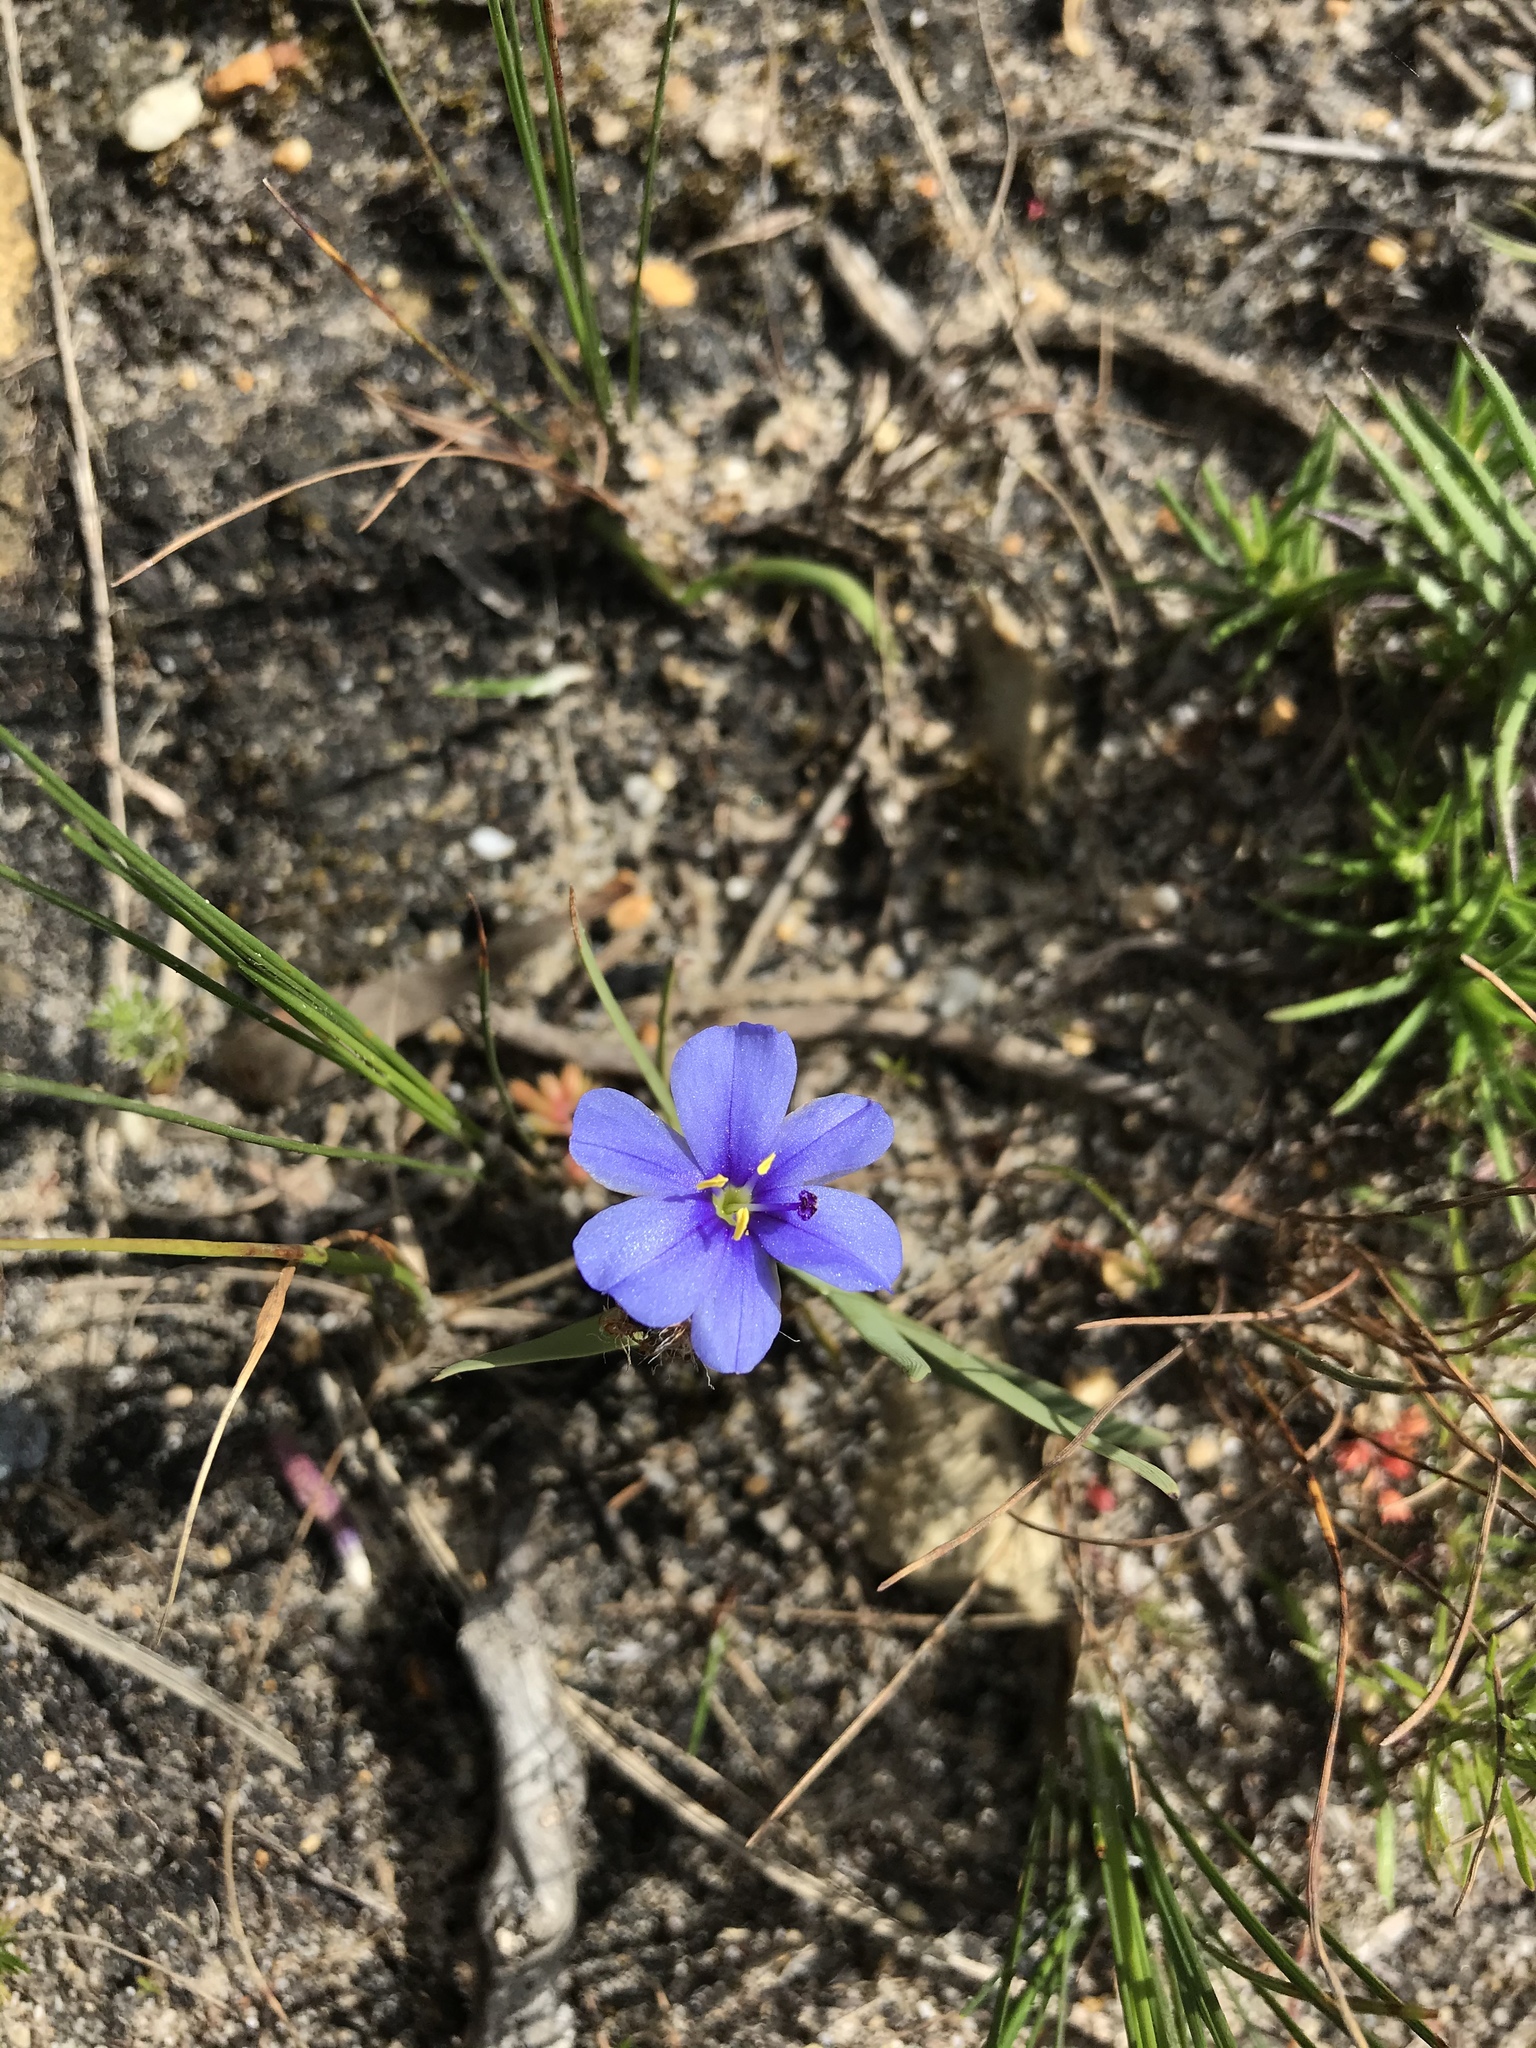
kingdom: Plantae
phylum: Tracheophyta
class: Liliopsida
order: Asparagales
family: Iridaceae
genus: Aristea
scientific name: Aristea africana
